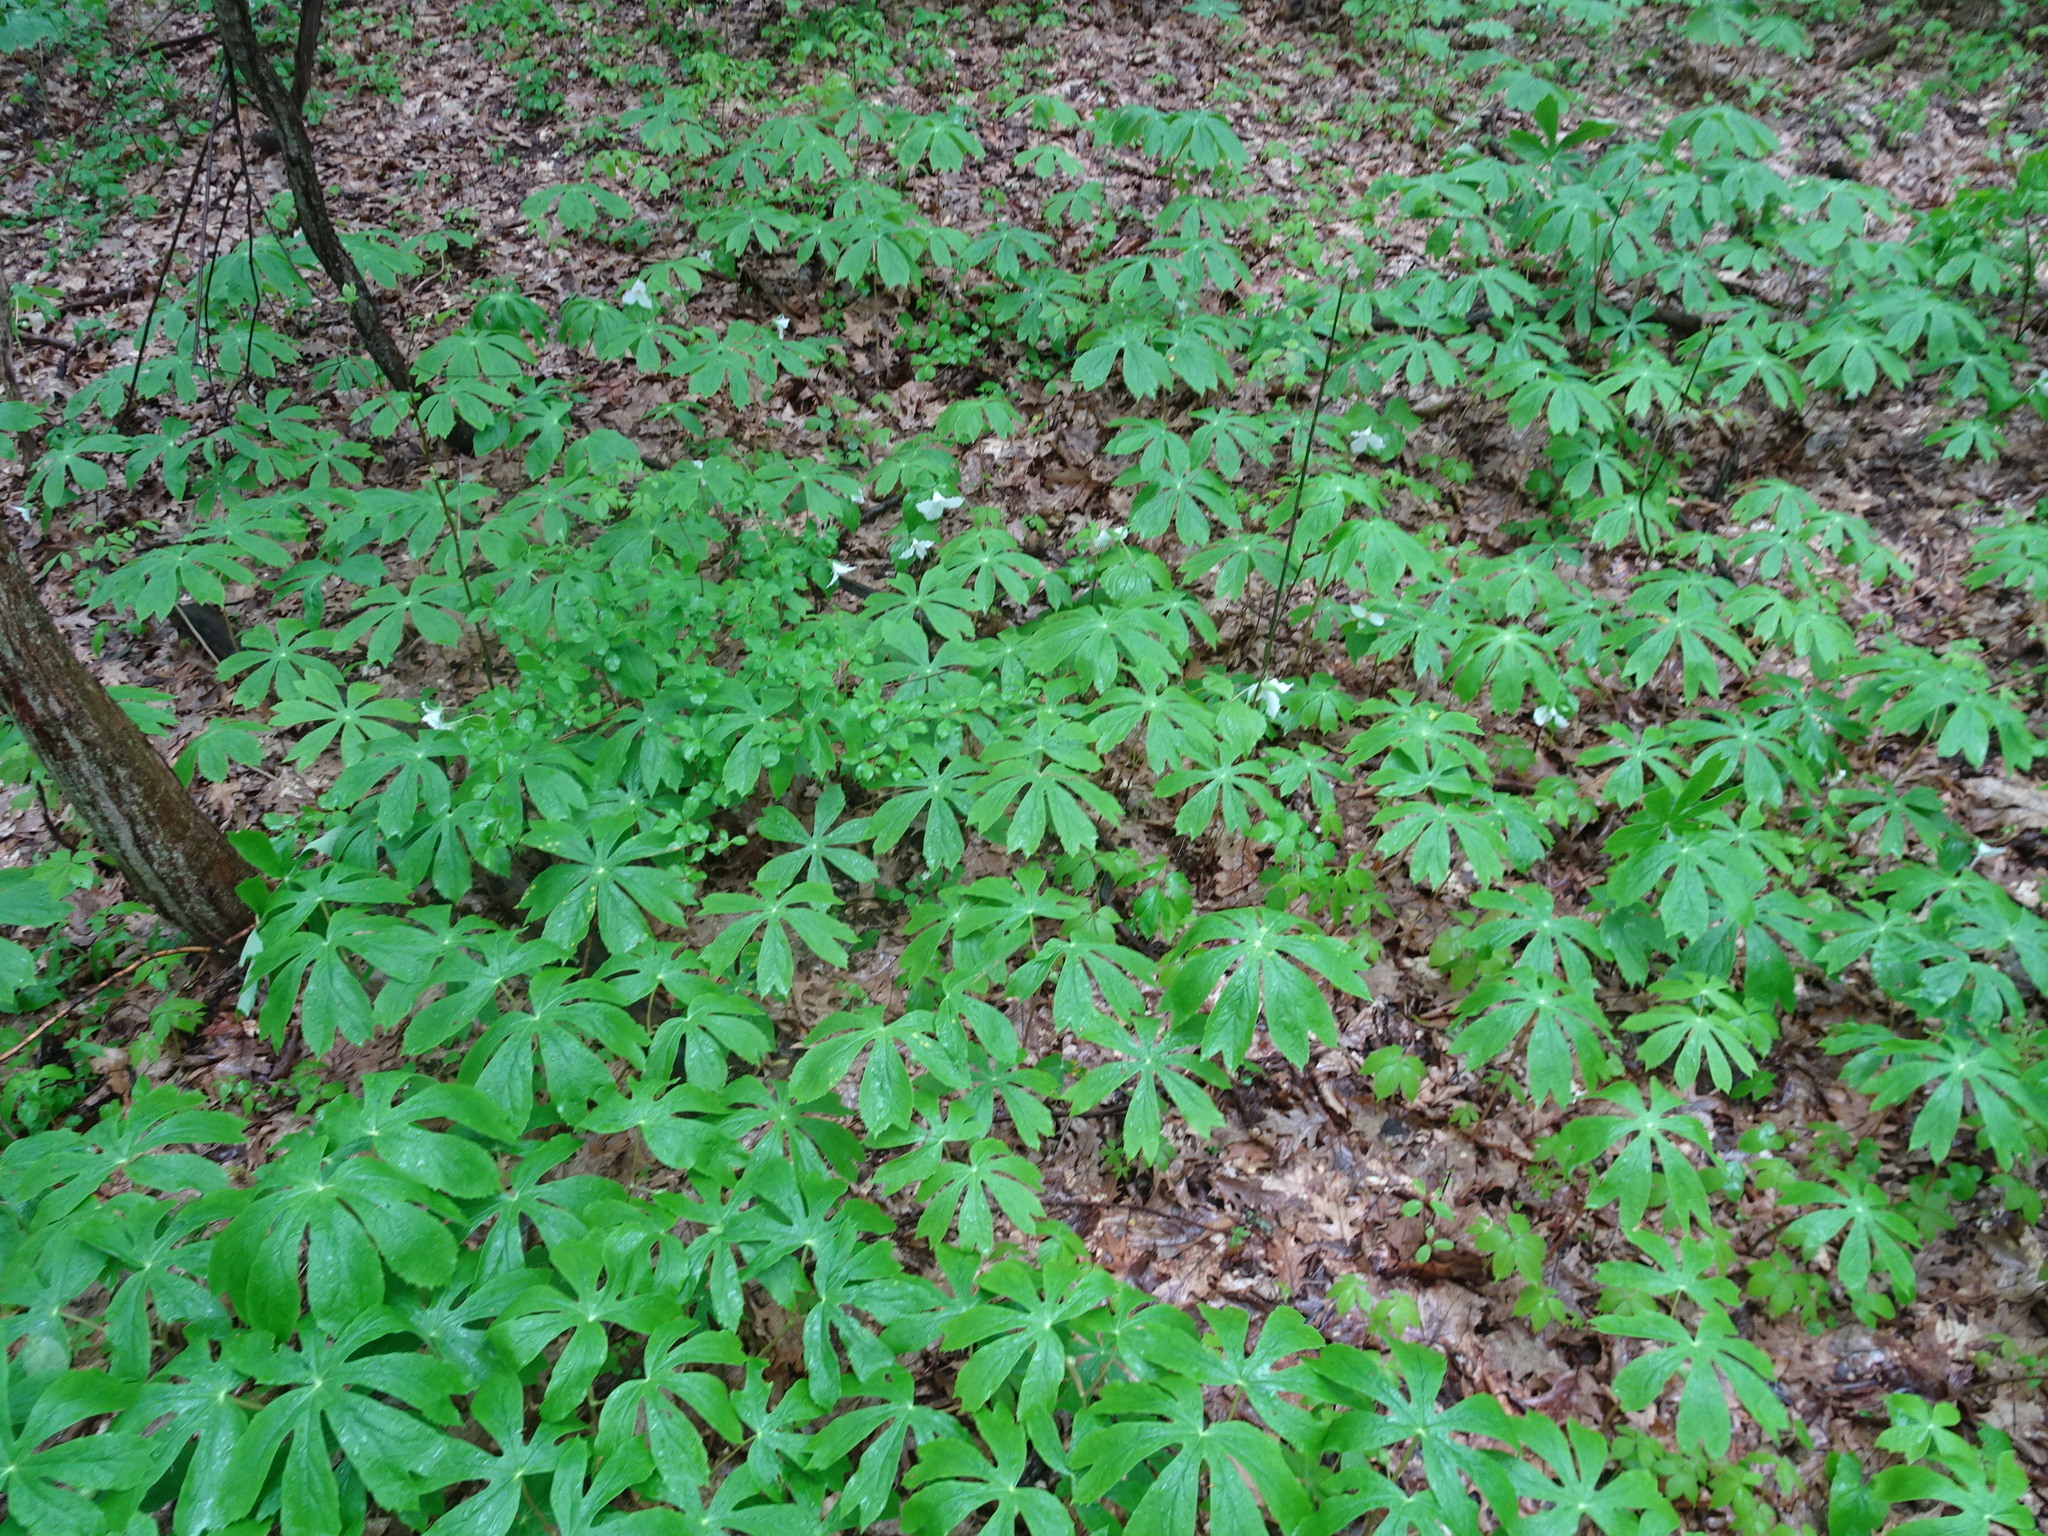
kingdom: Plantae
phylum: Tracheophyta
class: Liliopsida
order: Liliales
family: Melanthiaceae
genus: Trillium
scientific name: Trillium grandiflorum
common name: Great white trillium
